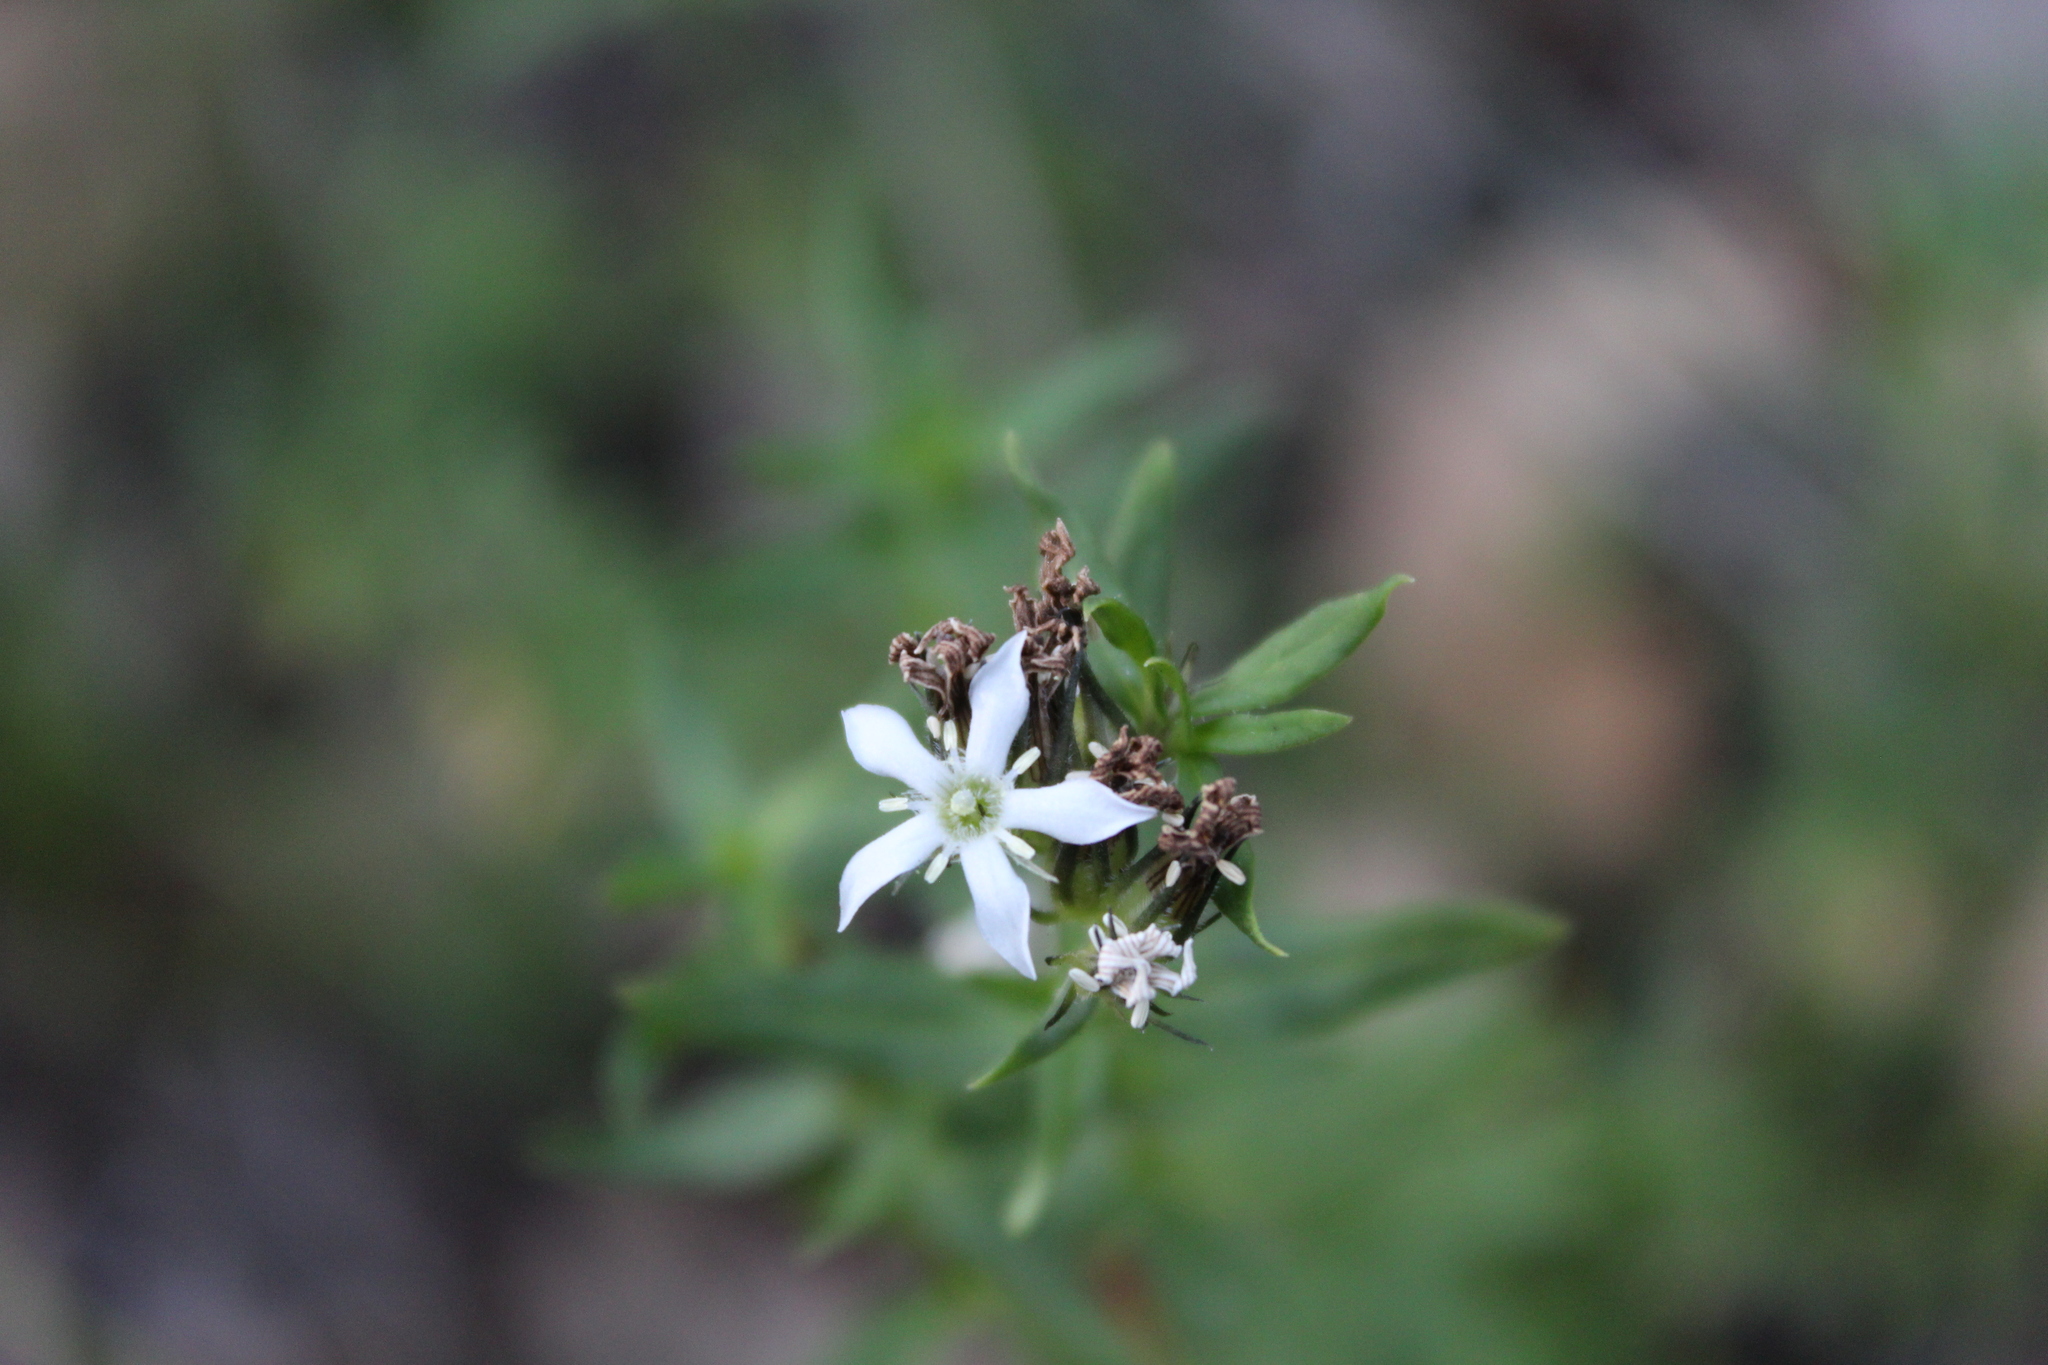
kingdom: Plantae
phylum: Tracheophyta
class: Magnoliopsida
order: Gentianales
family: Loganiaceae
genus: Orianthera
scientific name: Orianthera serpyllifolia
